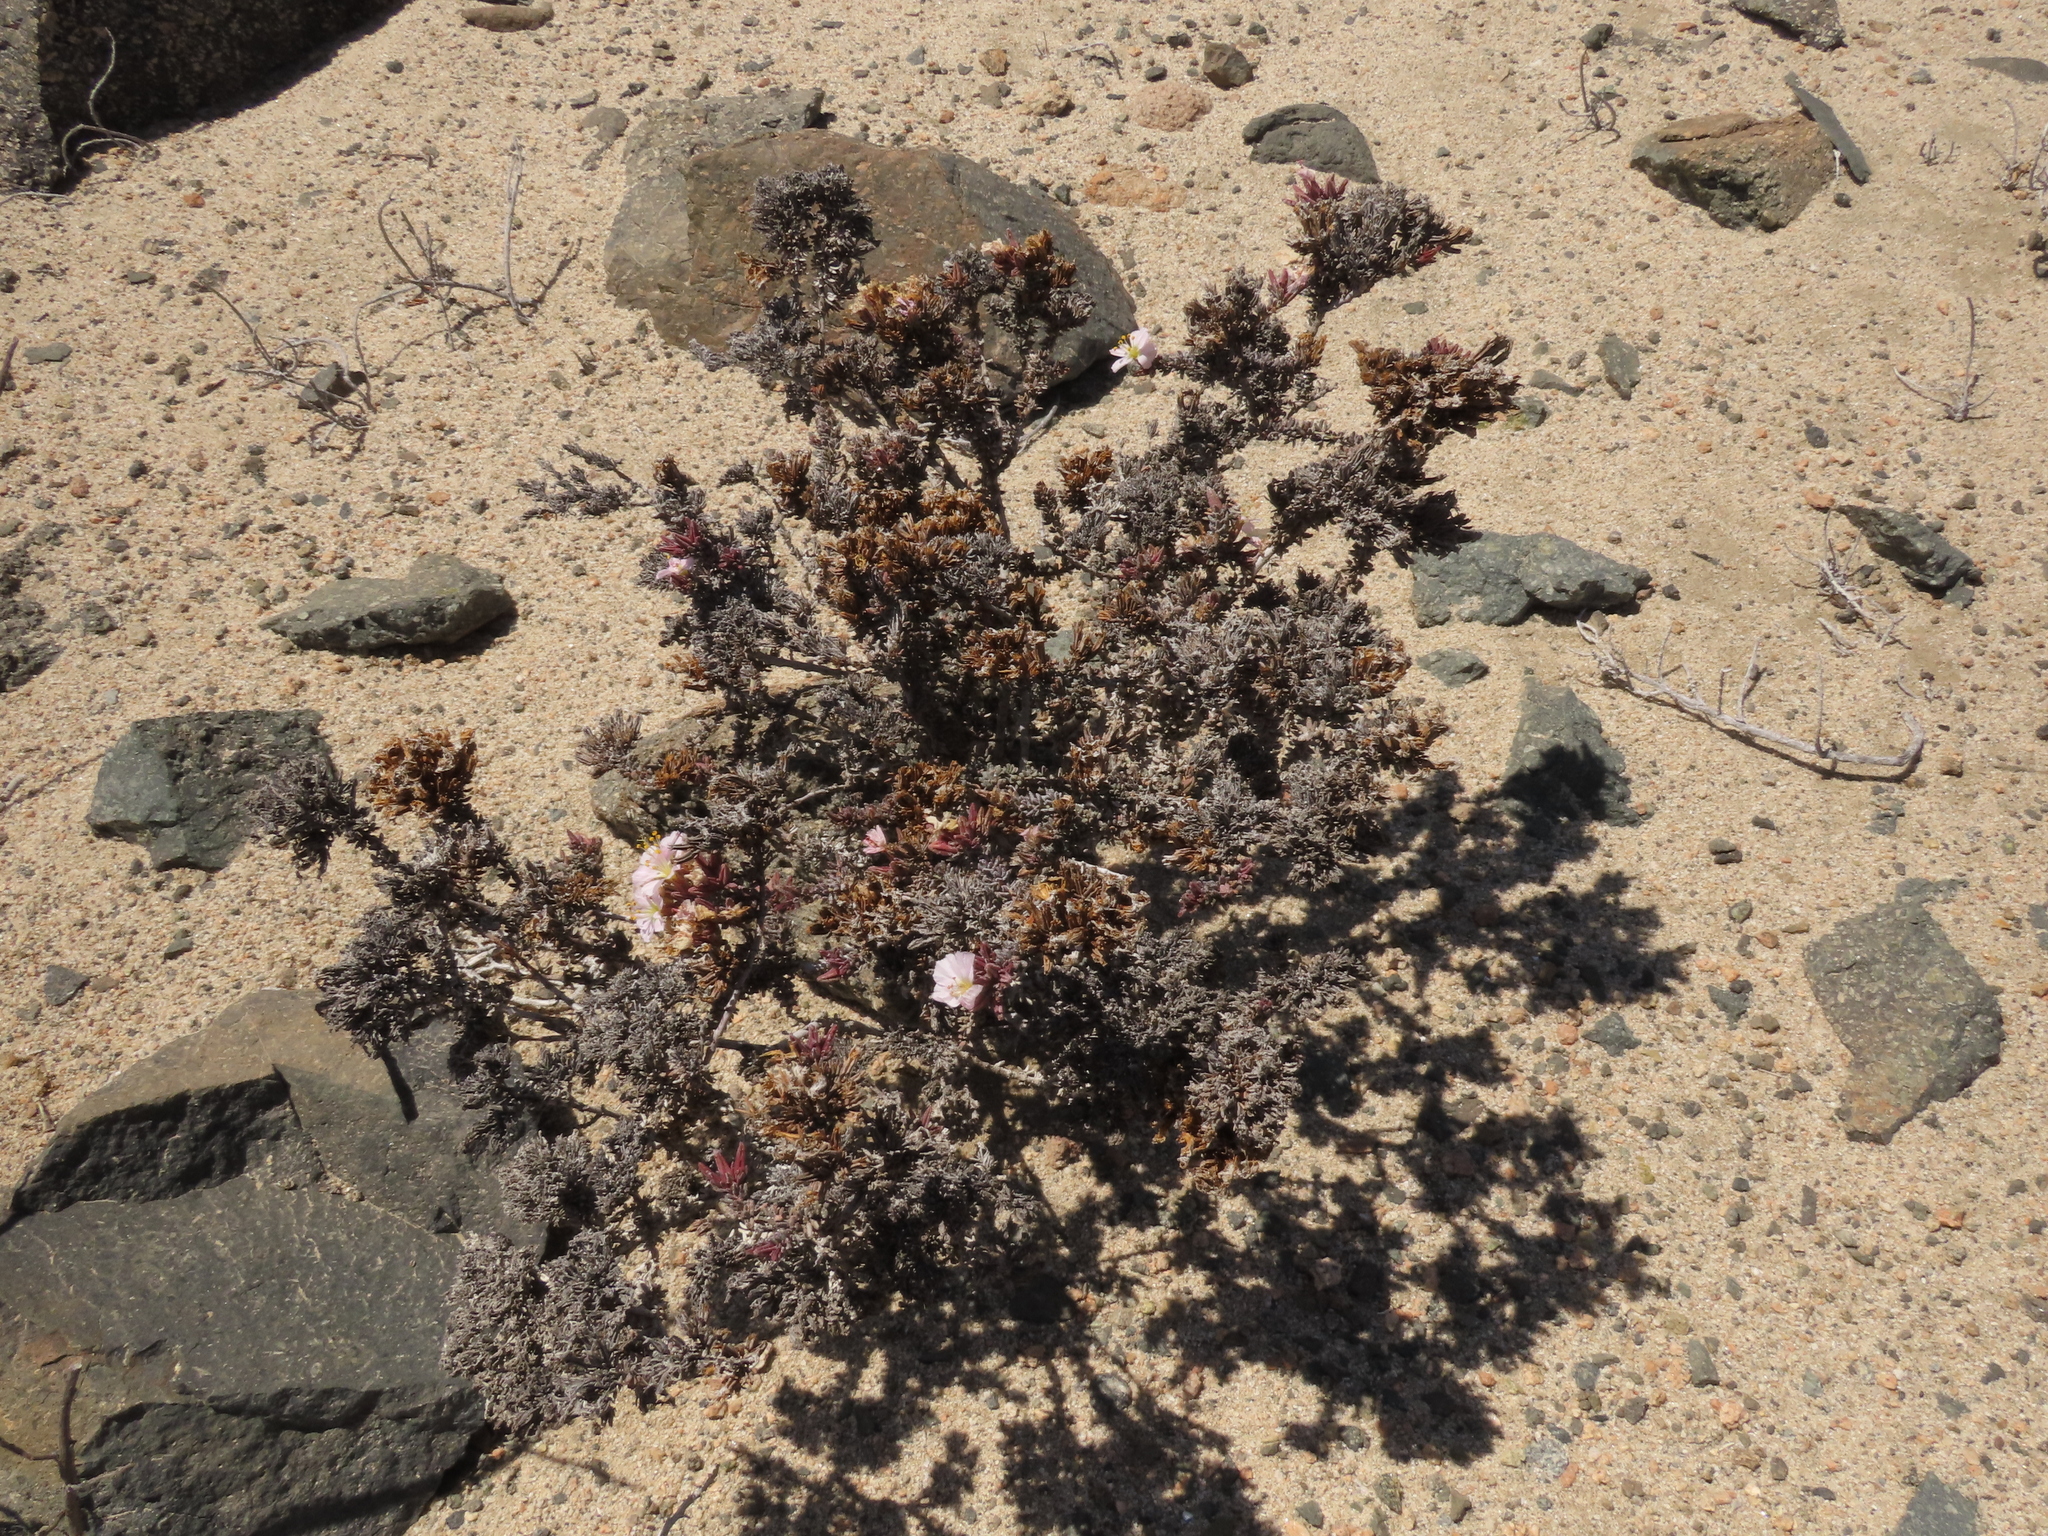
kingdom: Plantae
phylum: Tracheophyta
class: Magnoliopsida
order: Caryophyllales
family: Frankeniaceae
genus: Frankenia
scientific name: Frankenia chilensis
